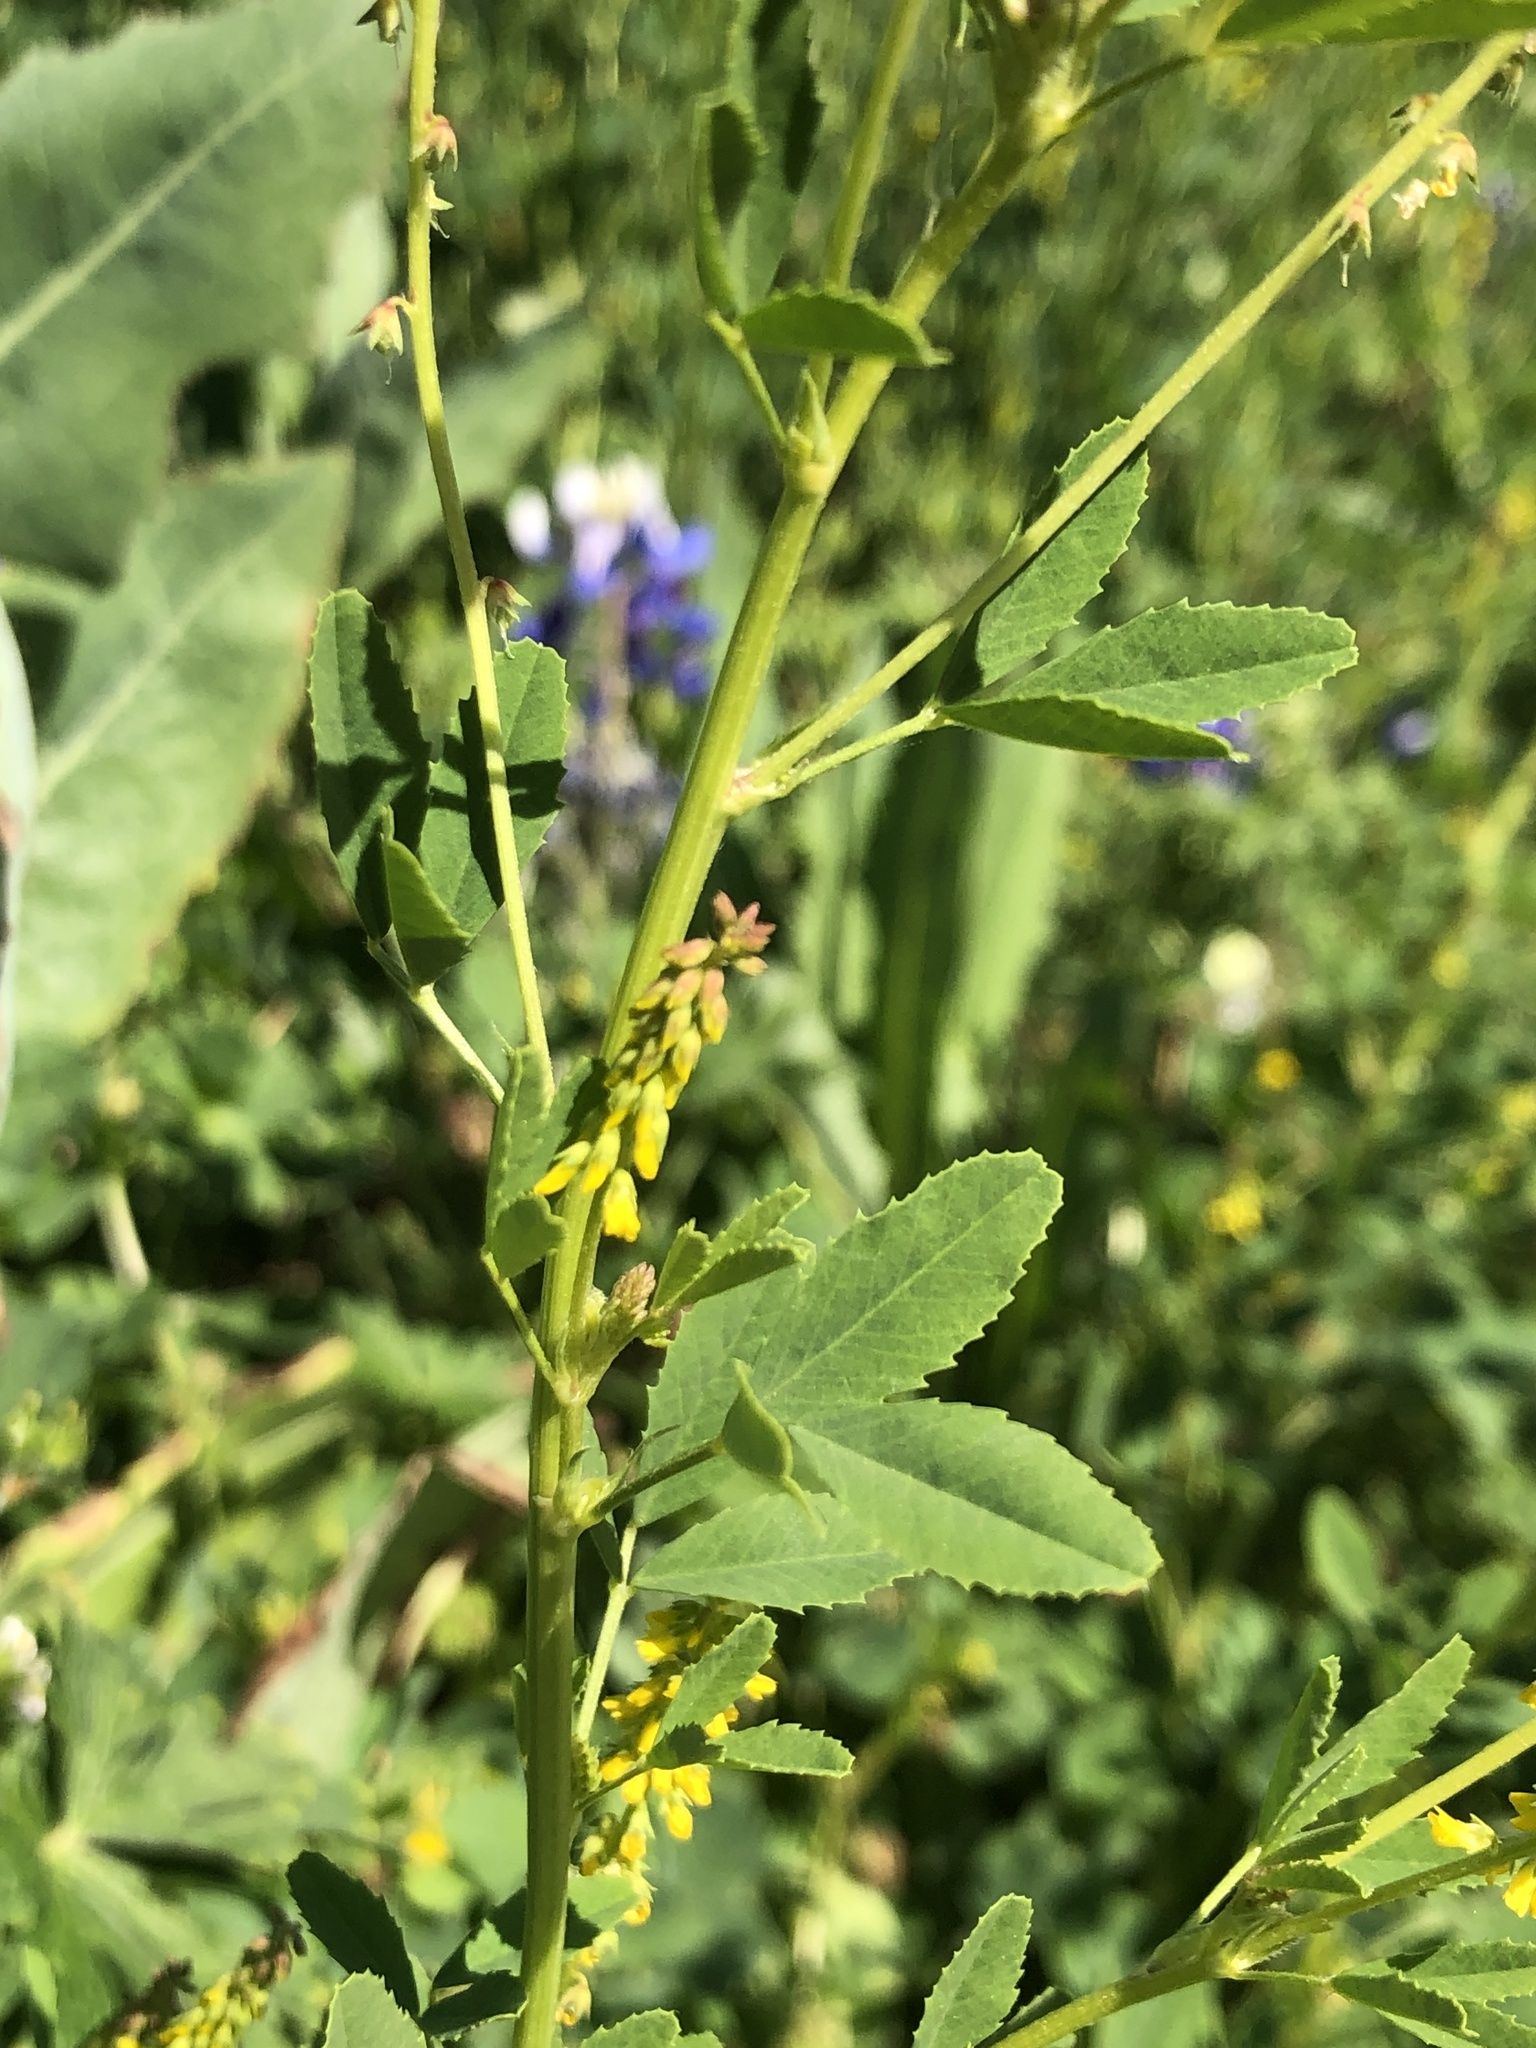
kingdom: Plantae
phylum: Tracheophyta
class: Magnoliopsida
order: Fabales
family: Fabaceae
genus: Melilotus
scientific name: Melilotus indicus
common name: Small melilot
